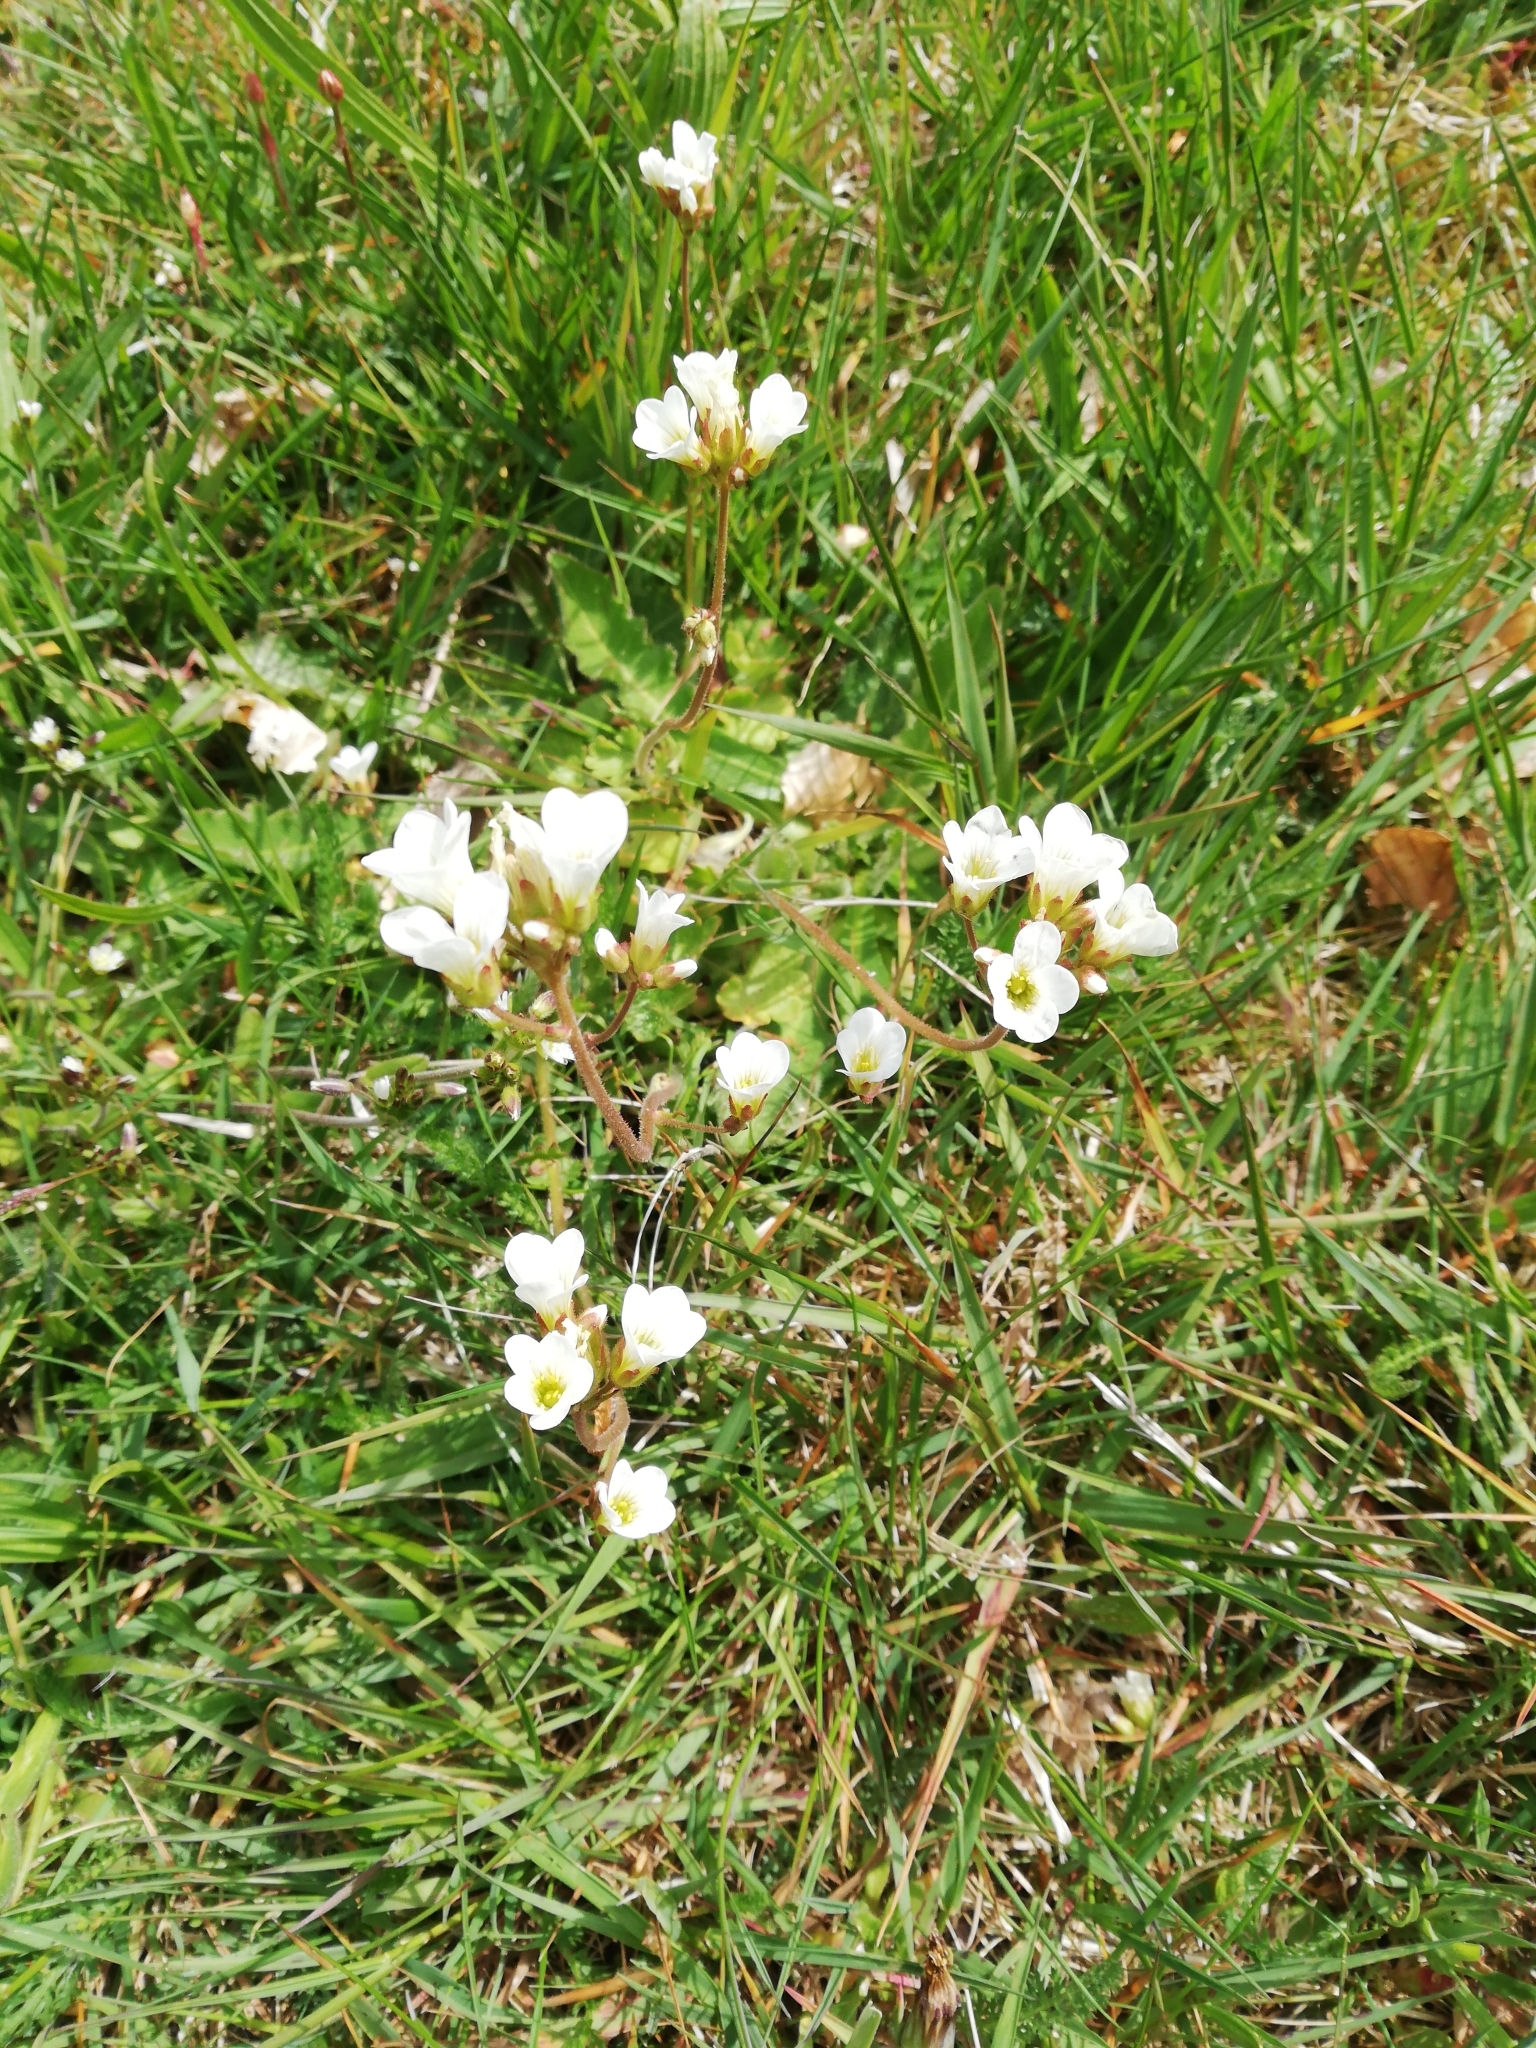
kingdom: Plantae
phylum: Tracheophyta
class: Magnoliopsida
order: Saxifragales
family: Saxifragaceae
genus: Saxifraga
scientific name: Saxifraga granulata
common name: Meadow saxifrage
